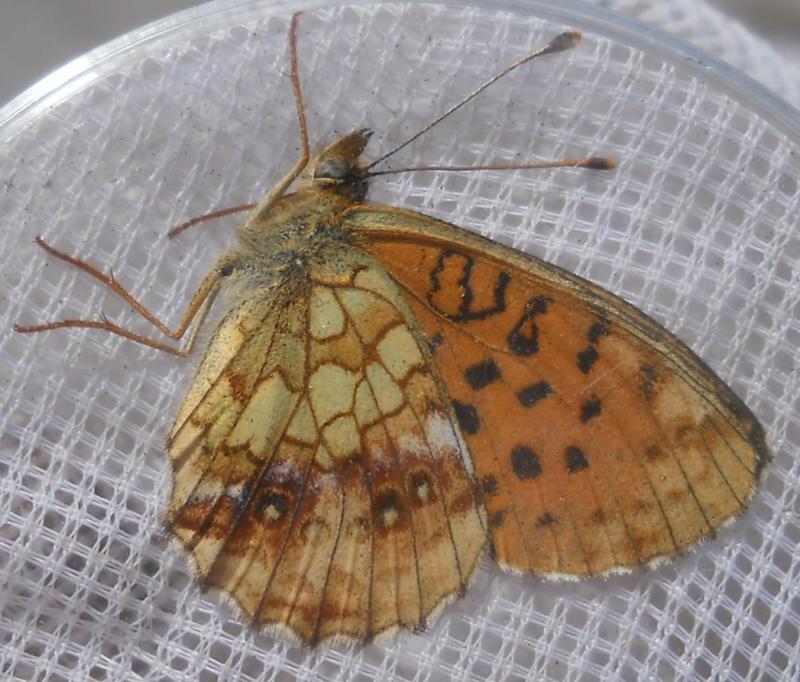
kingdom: Animalia
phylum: Arthropoda
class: Insecta
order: Lepidoptera
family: Nymphalidae
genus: Brenthis
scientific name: Brenthis ino
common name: Lesser marbled fritillary
